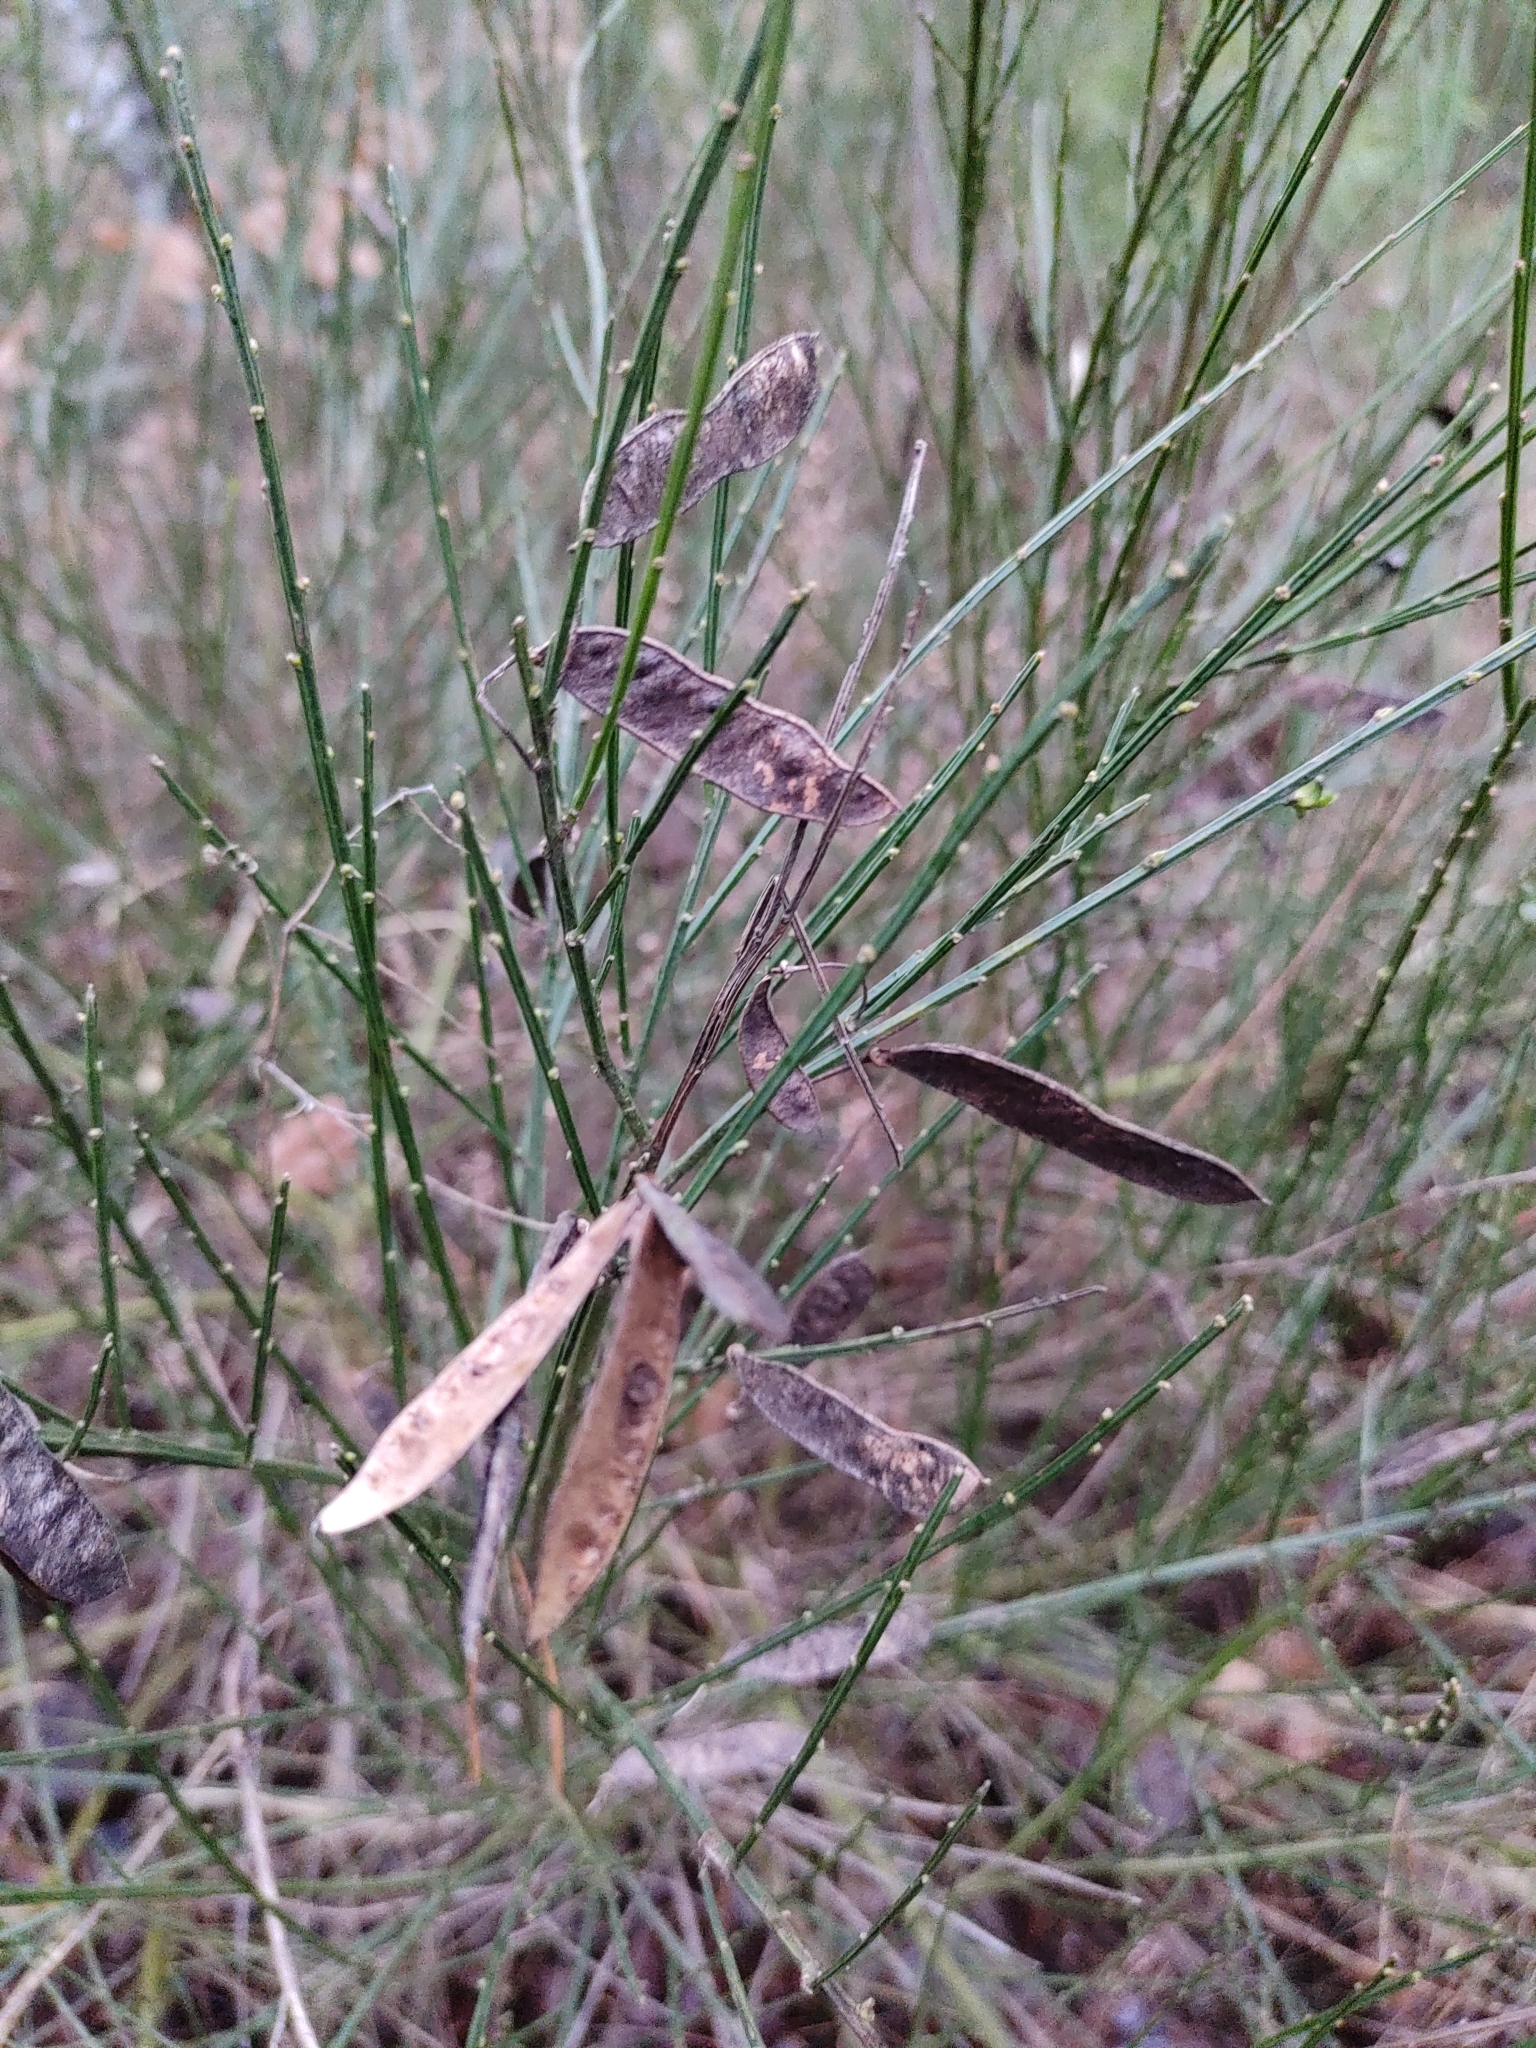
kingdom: Plantae
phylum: Tracheophyta
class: Magnoliopsida
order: Fabales
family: Fabaceae
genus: Cytisus
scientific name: Cytisus scoparius
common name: Scotch broom
